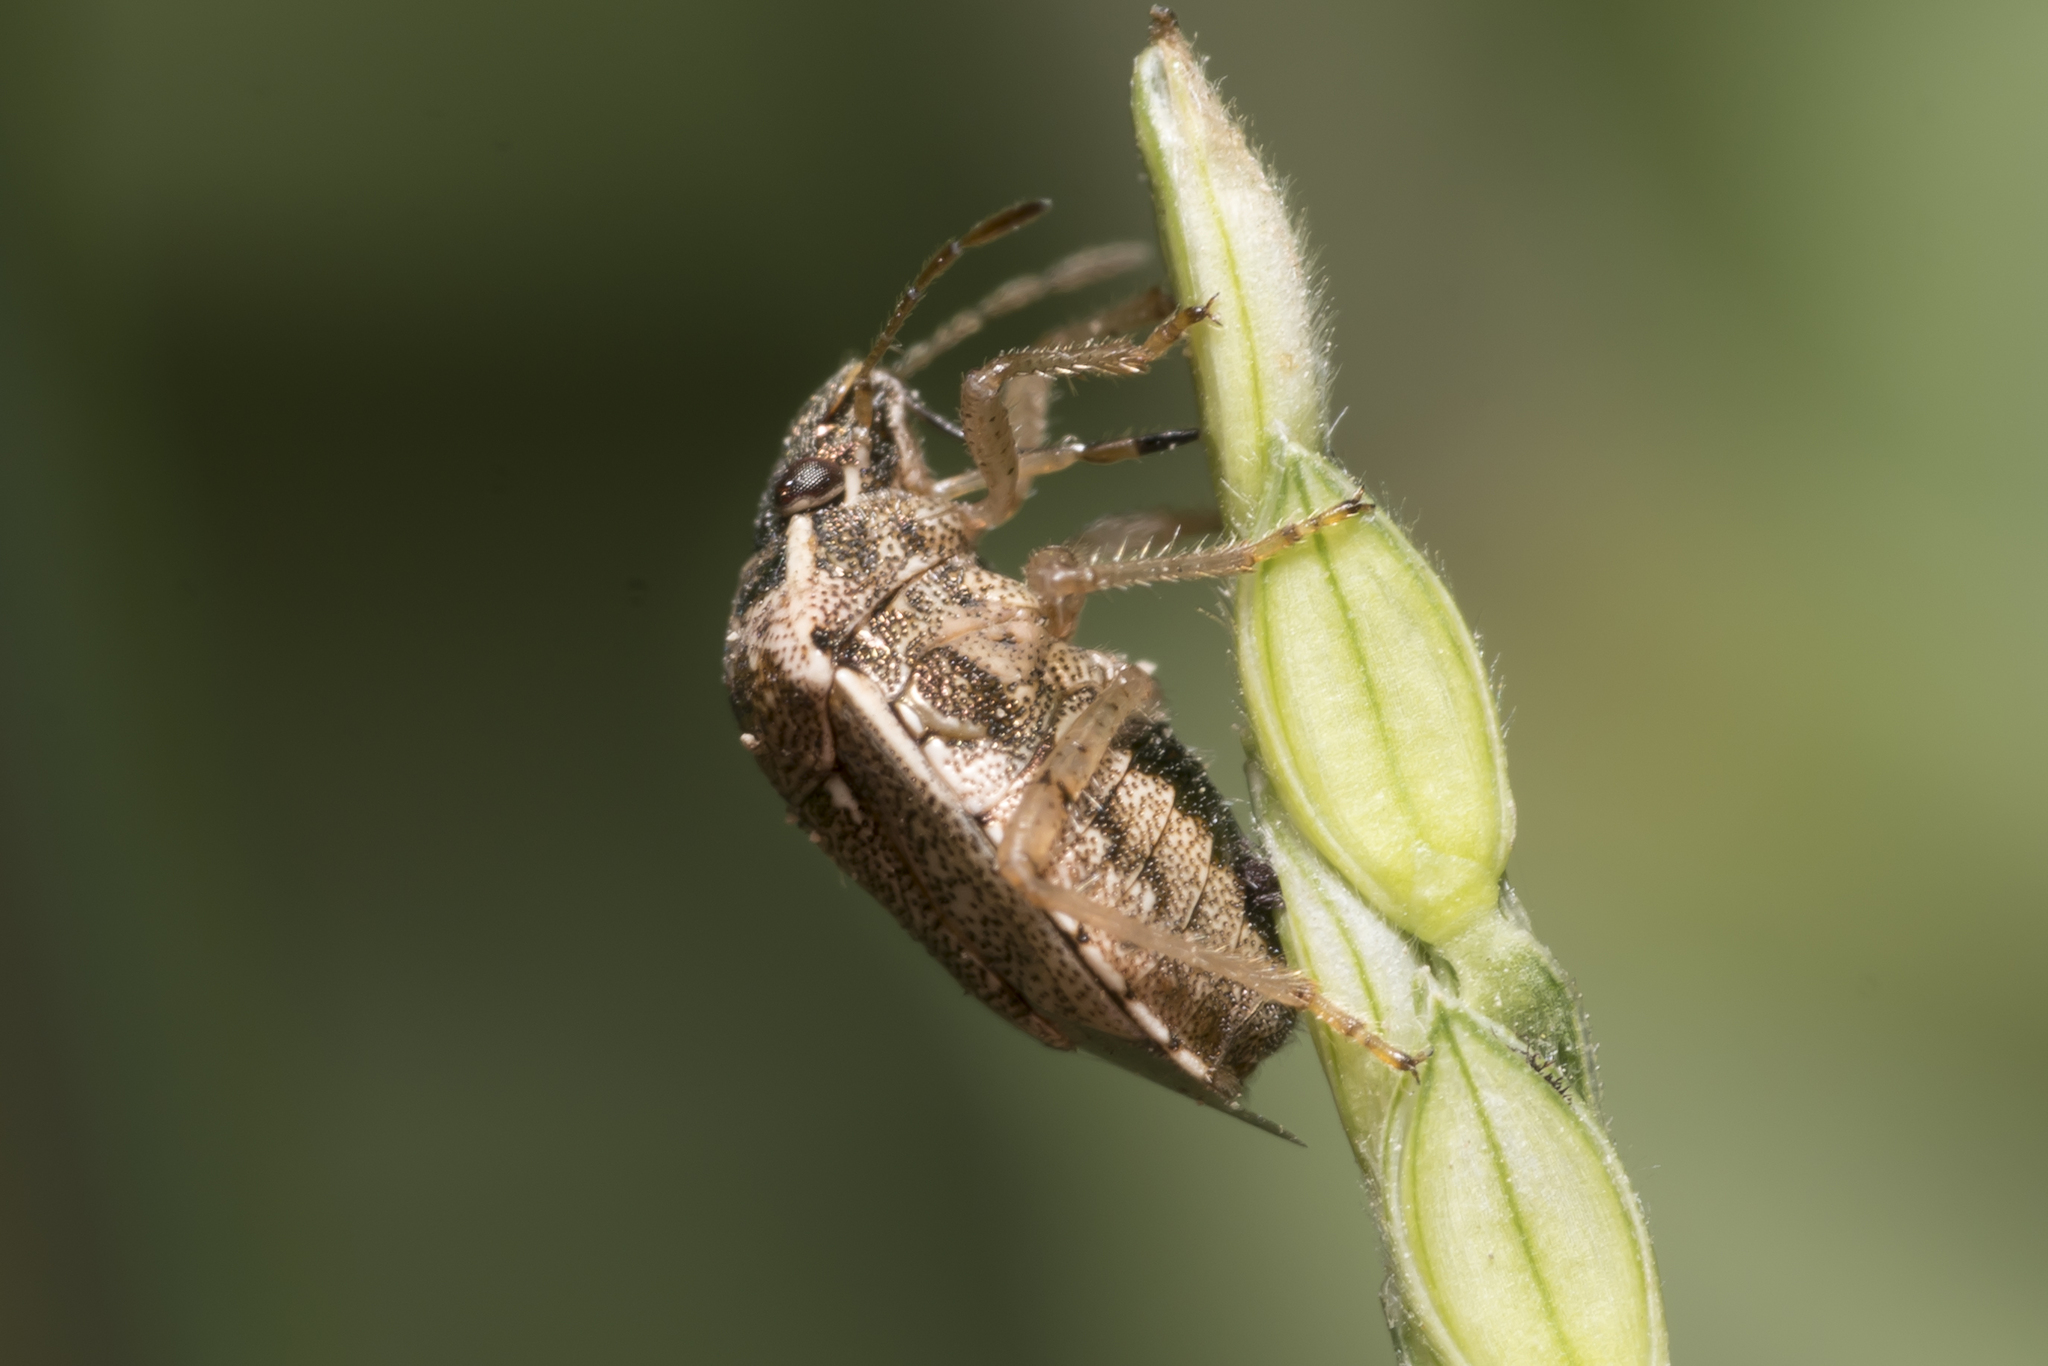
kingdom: Animalia
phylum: Arthropoda
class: Insecta
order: Hemiptera
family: Pentatomidae
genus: Eysarcoris
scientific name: Eysarcoris ventralis
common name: White-spotted stink bug
